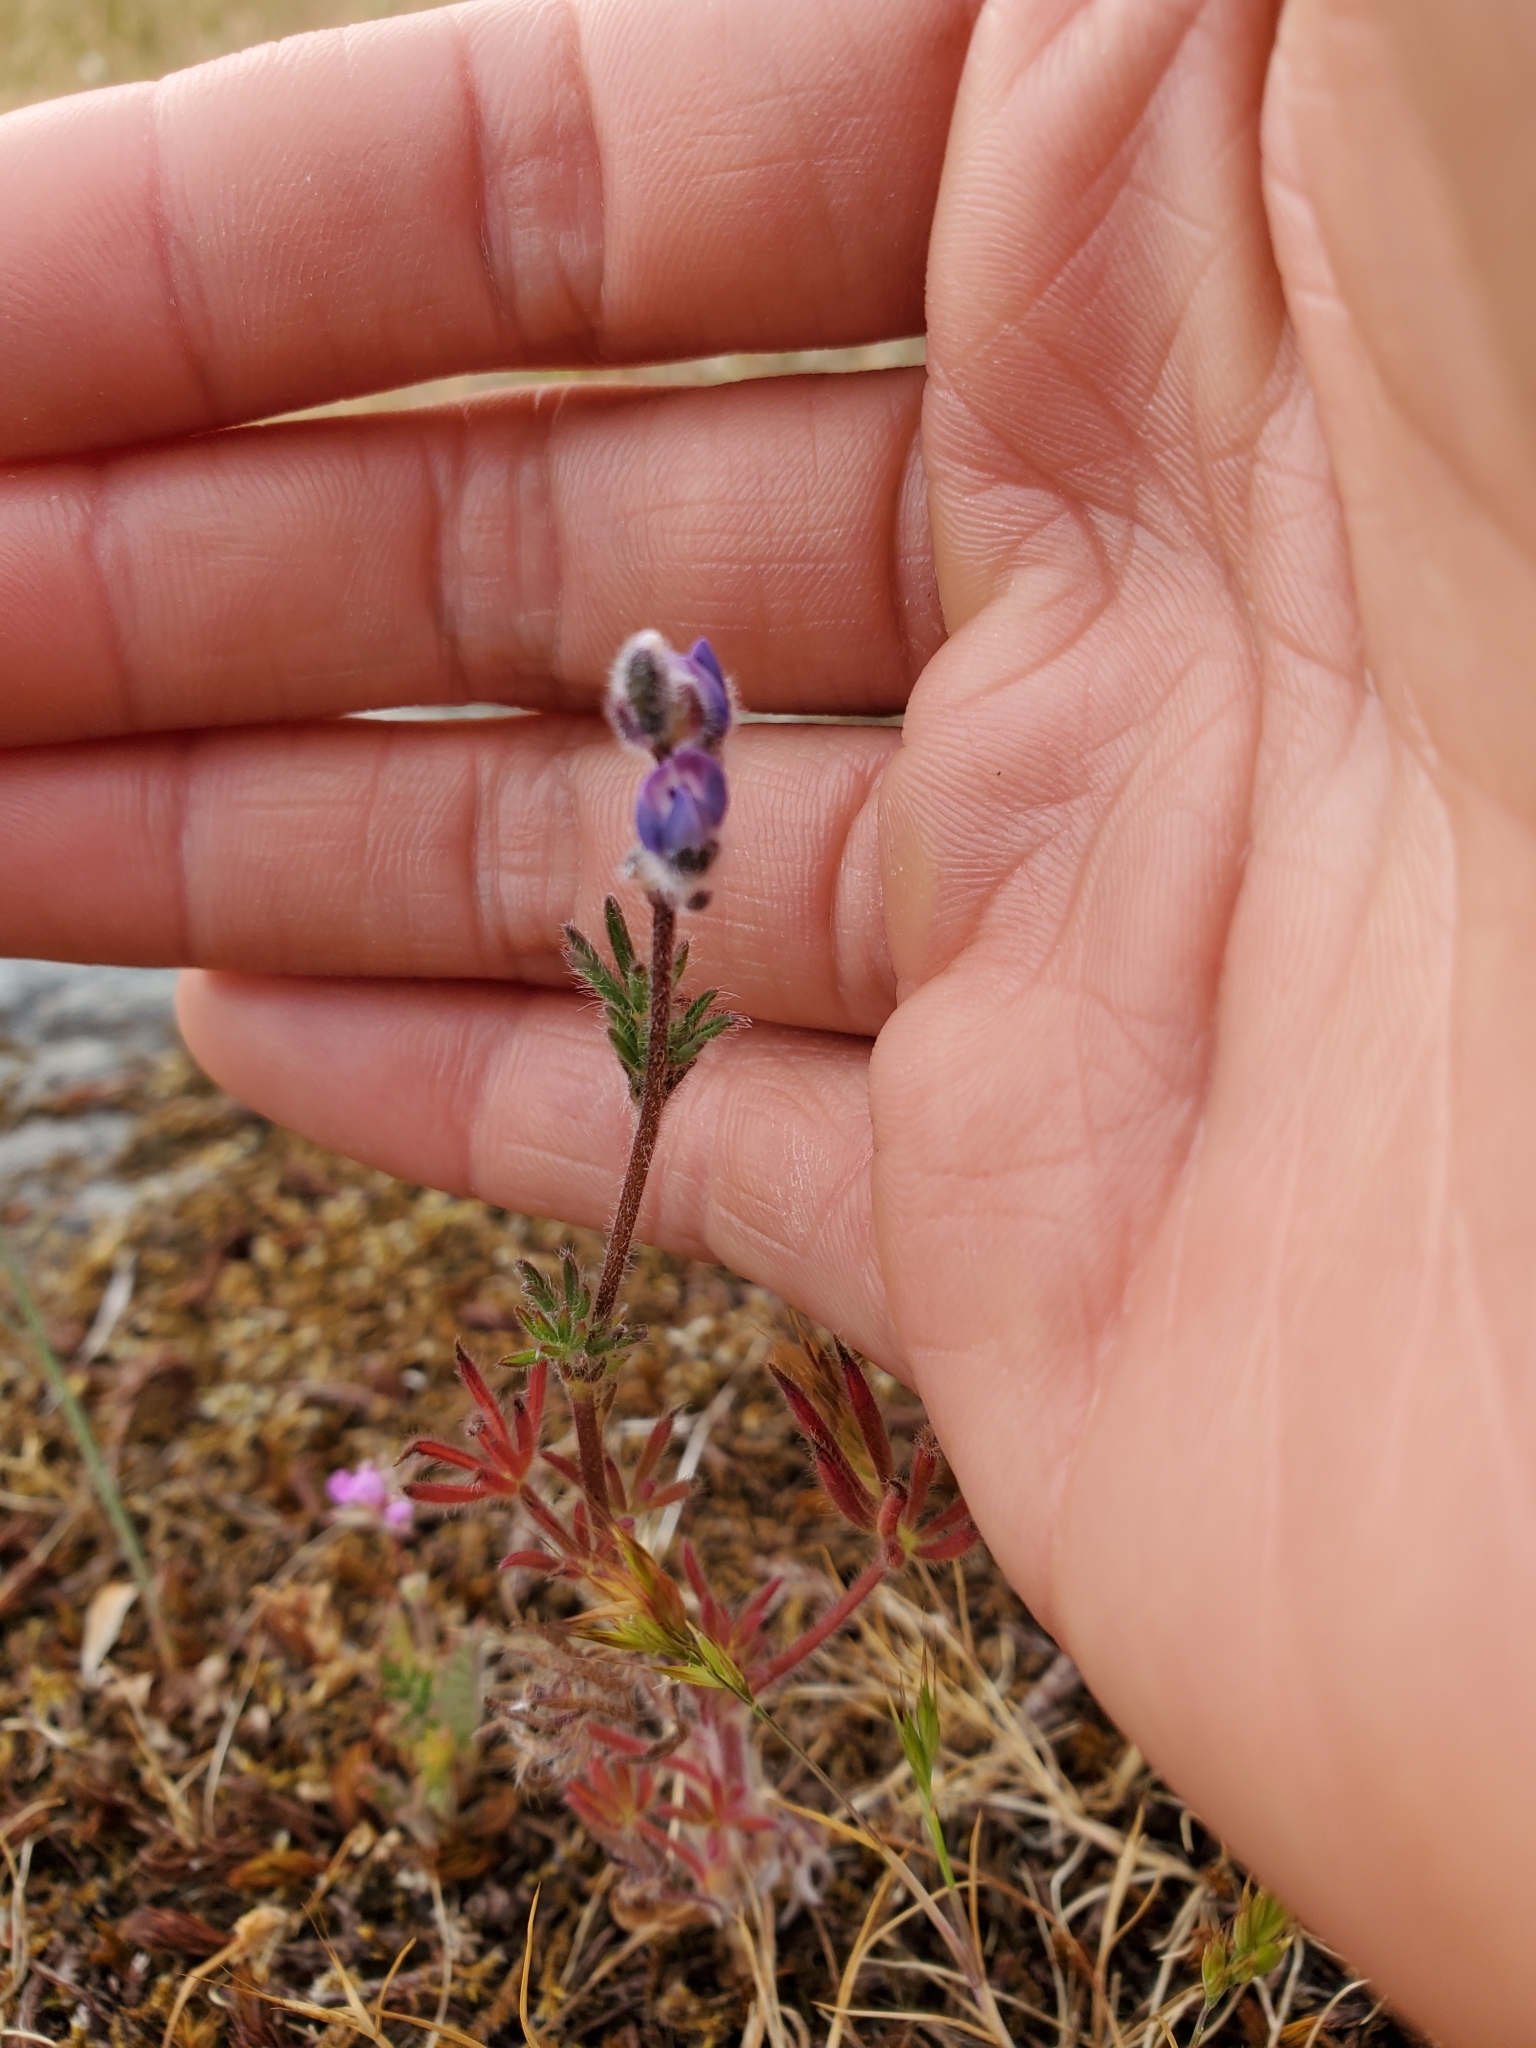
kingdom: Plantae
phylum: Tracheophyta
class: Magnoliopsida
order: Fabales
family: Fabaceae
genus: Lupinus
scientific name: Lupinus bicolor
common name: Miniature lupine
